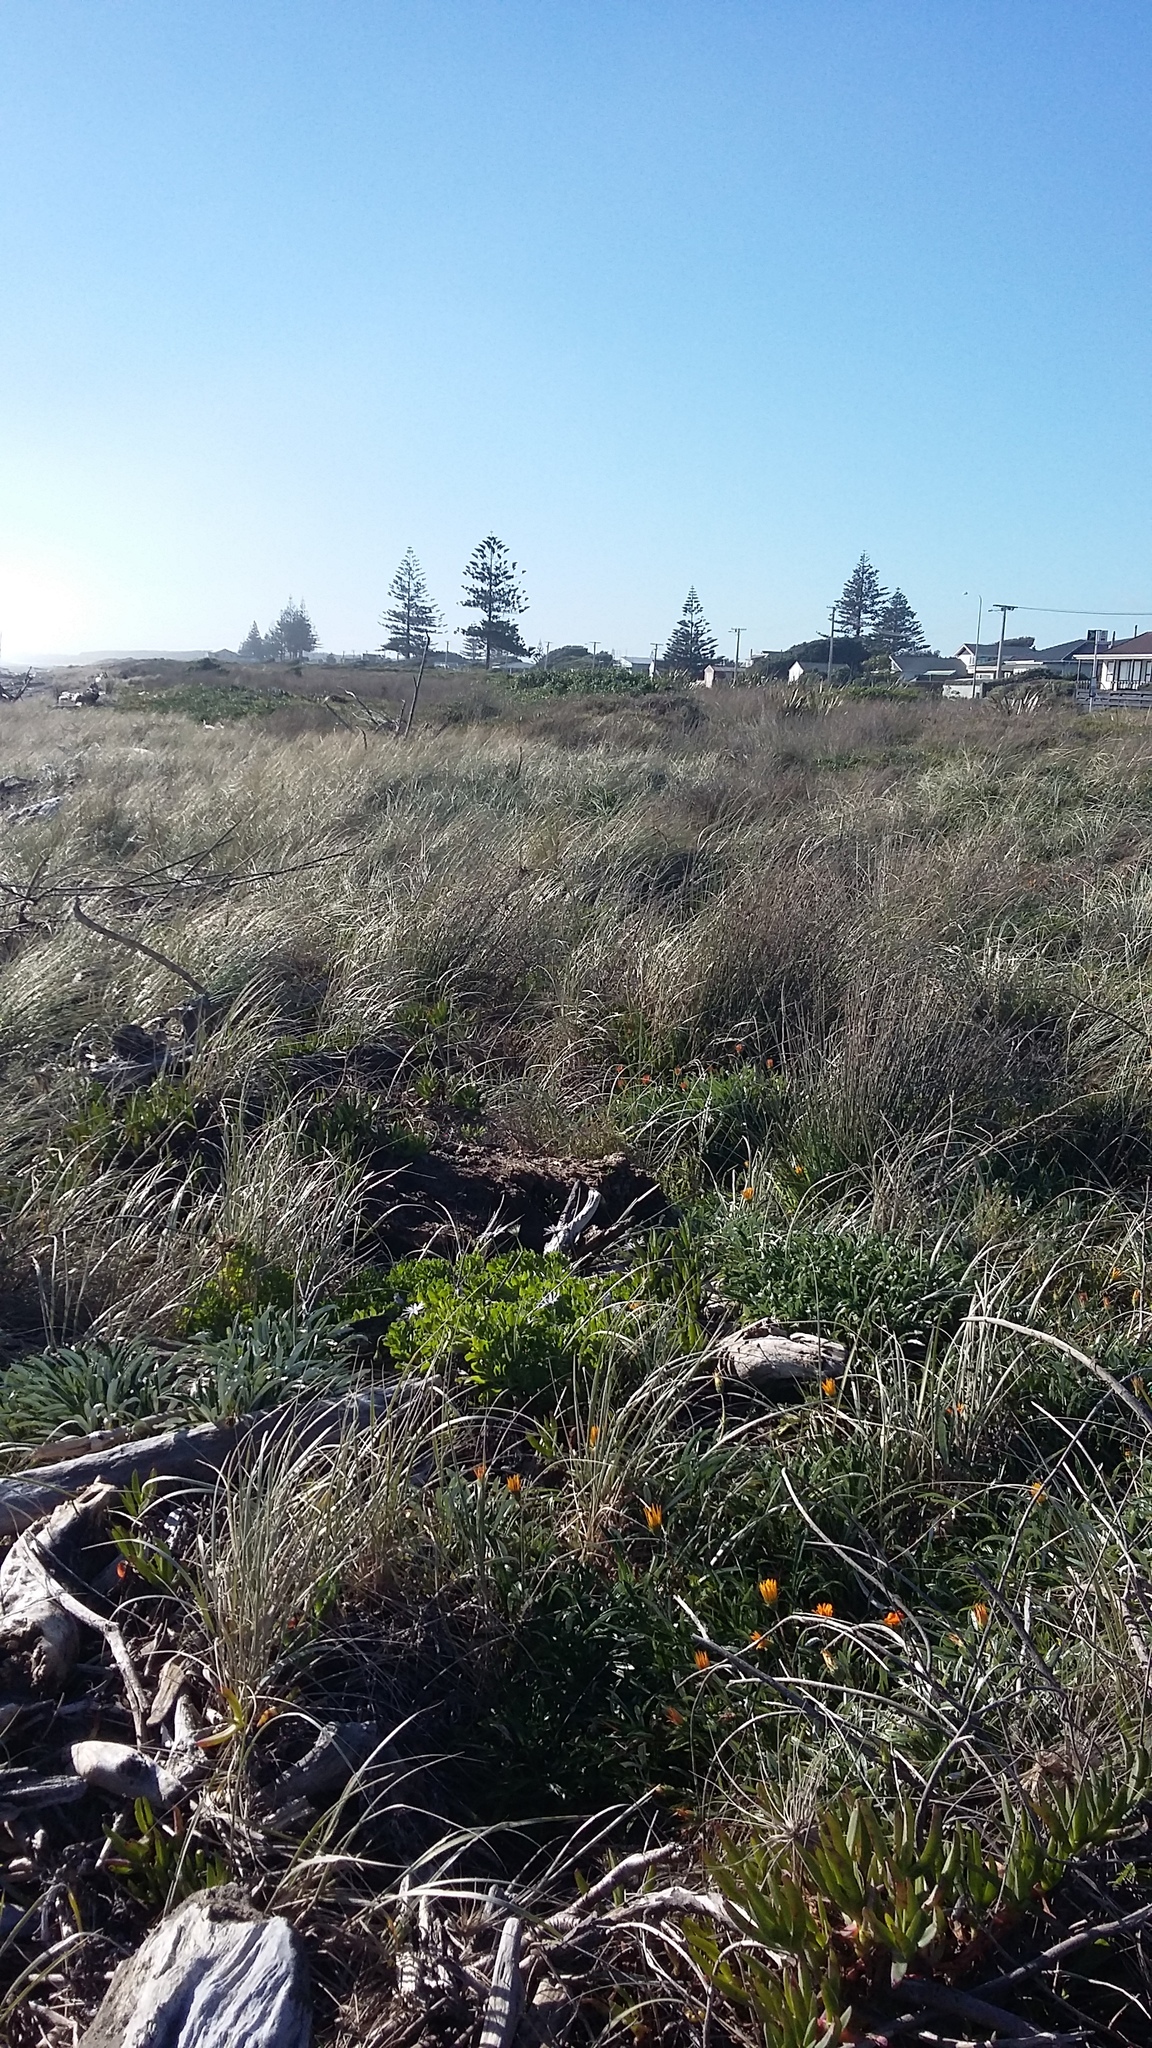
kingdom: Plantae
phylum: Tracheophyta
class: Liliopsida
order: Poales
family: Poaceae
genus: Calamagrostis
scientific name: Calamagrostis arenaria
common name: European beachgrass
